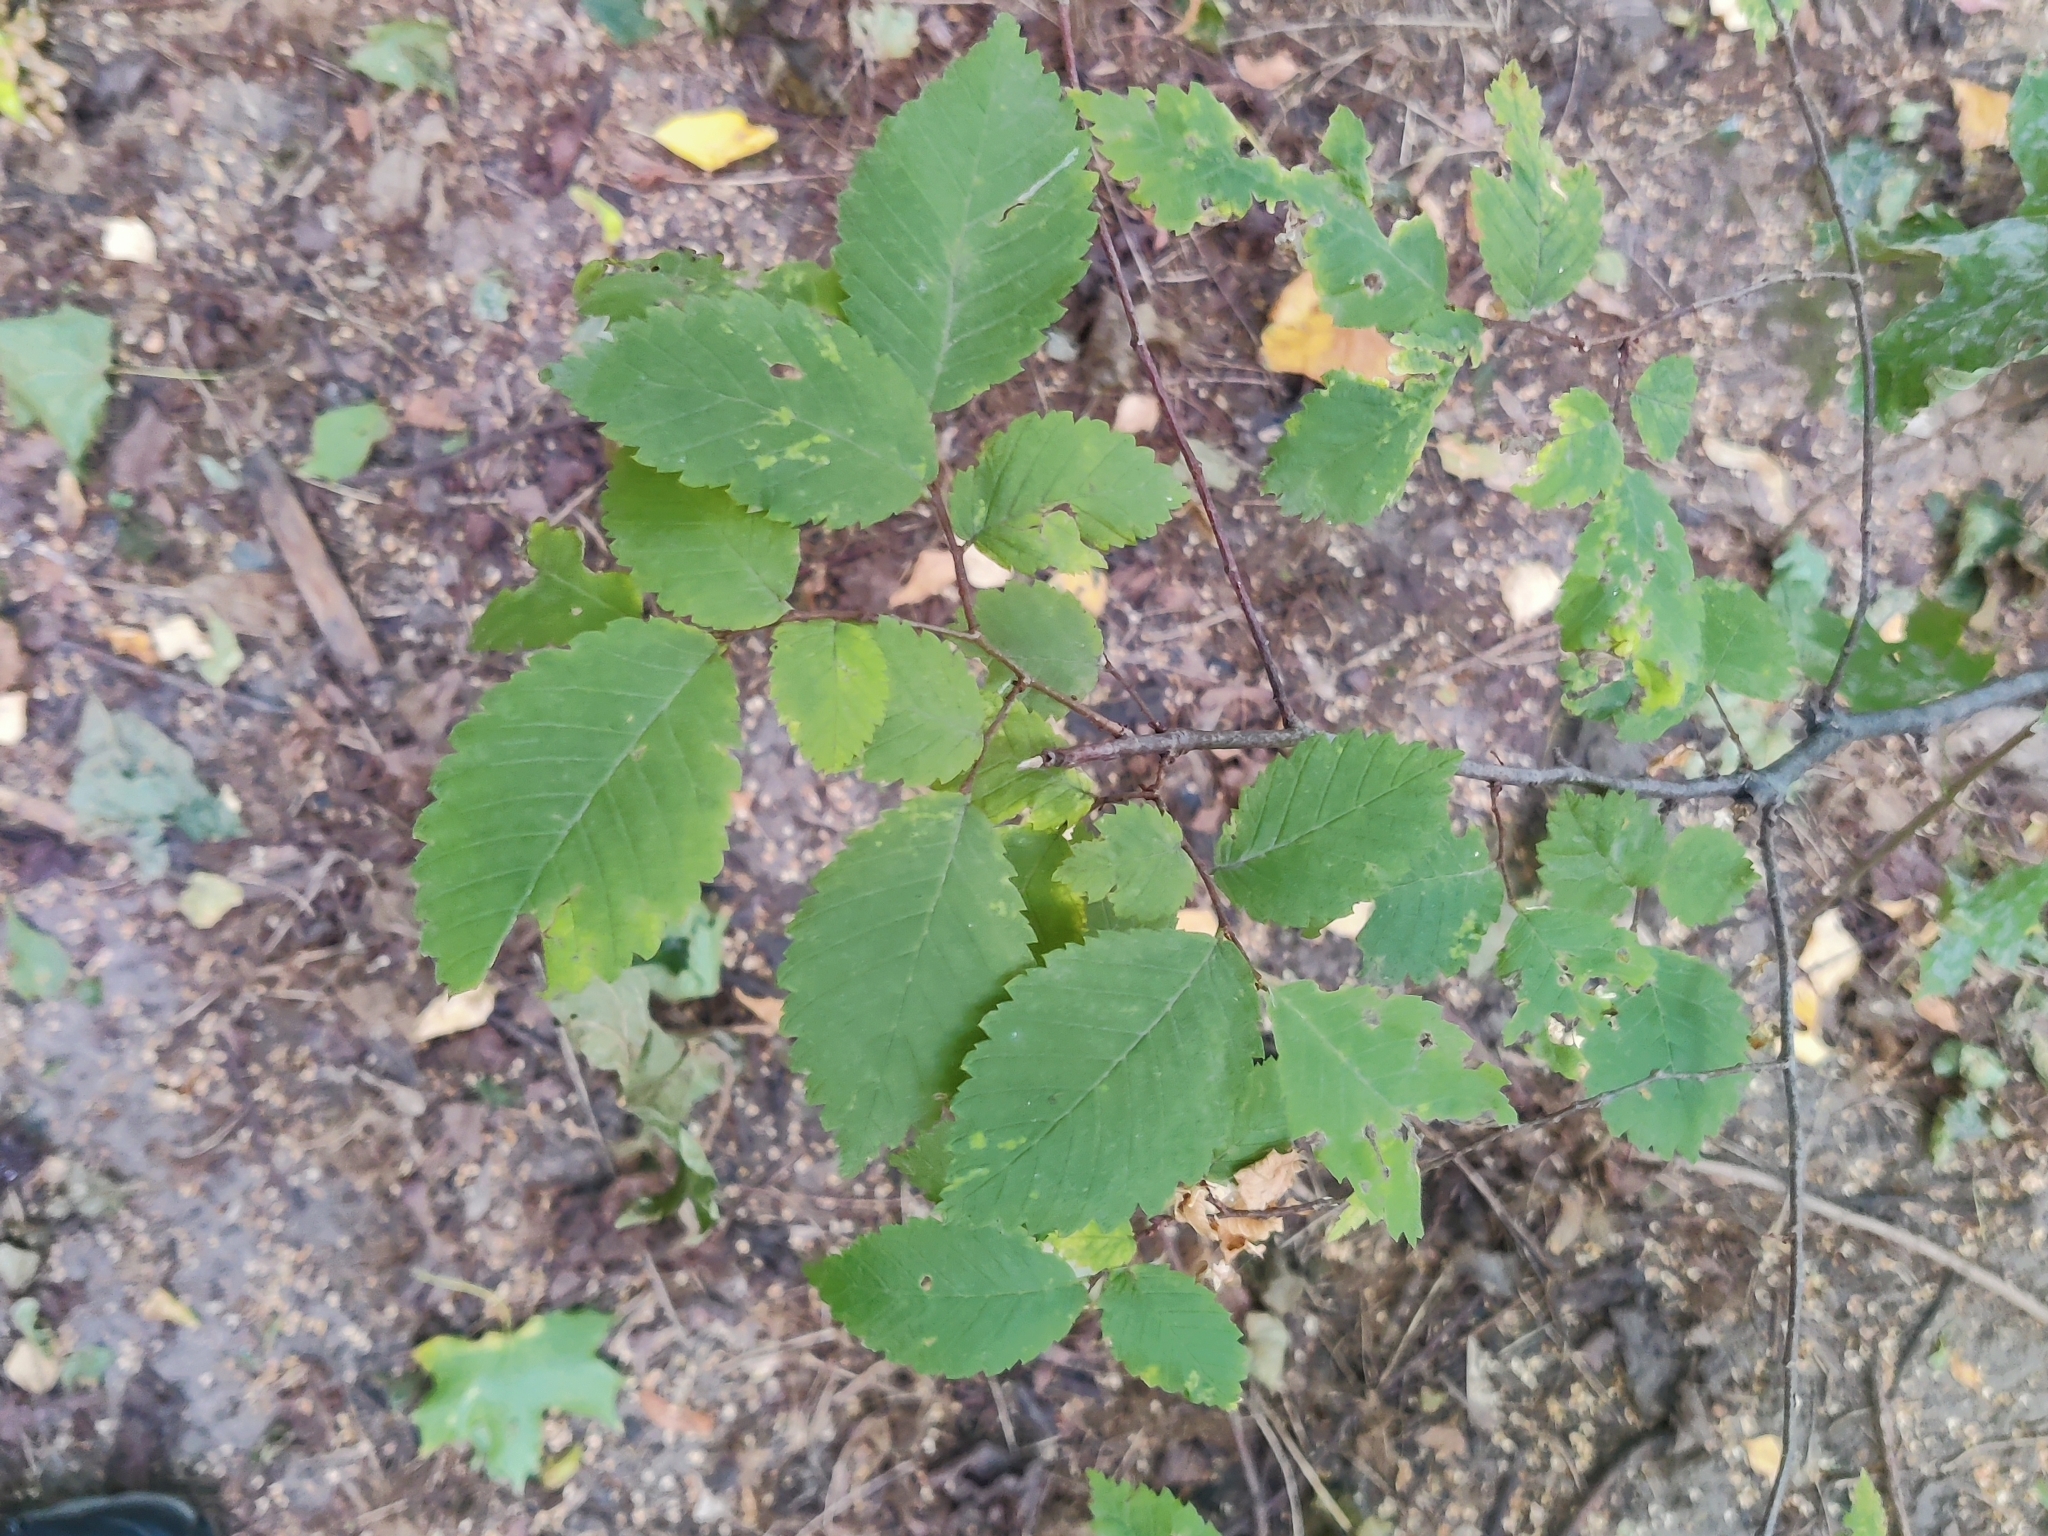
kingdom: Plantae
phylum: Tracheophyta
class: Magnoliopsida
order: Rosales
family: Ulmaceae
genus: Ulmus
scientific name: Ulmus laevis
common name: European white-elm
